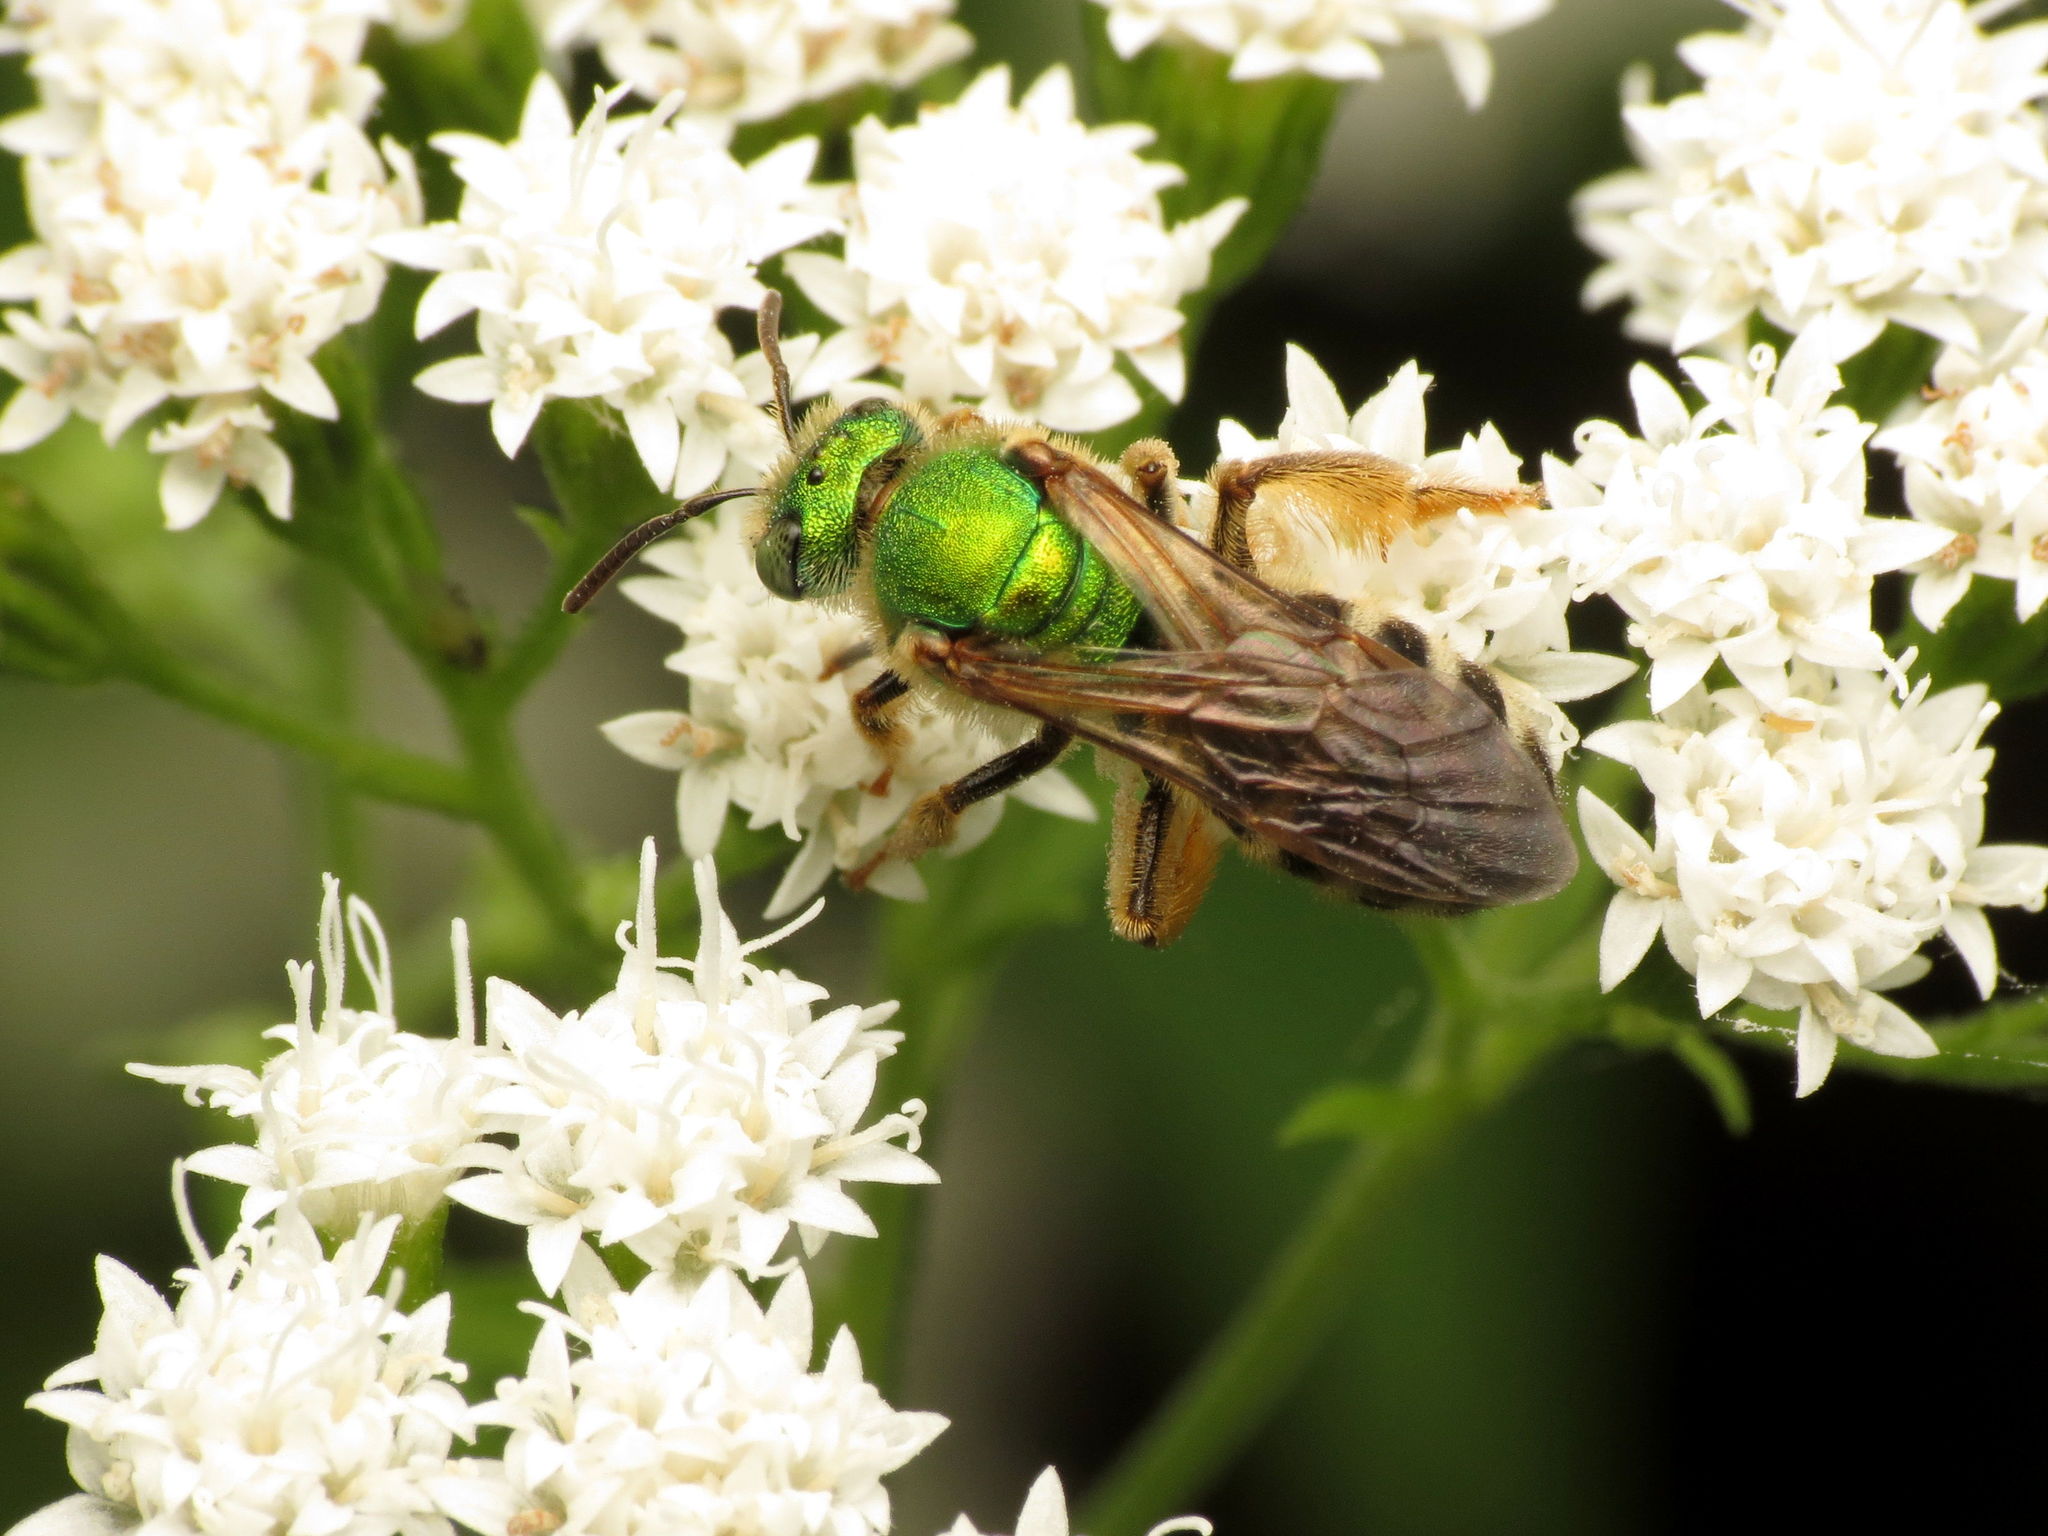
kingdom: Animalia
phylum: Arthropoda
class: Insecta
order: Hymenoptera
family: Halictidae
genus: Agapostemon
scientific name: Agapostemon virescens
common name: Bicolored striped sweat bee
